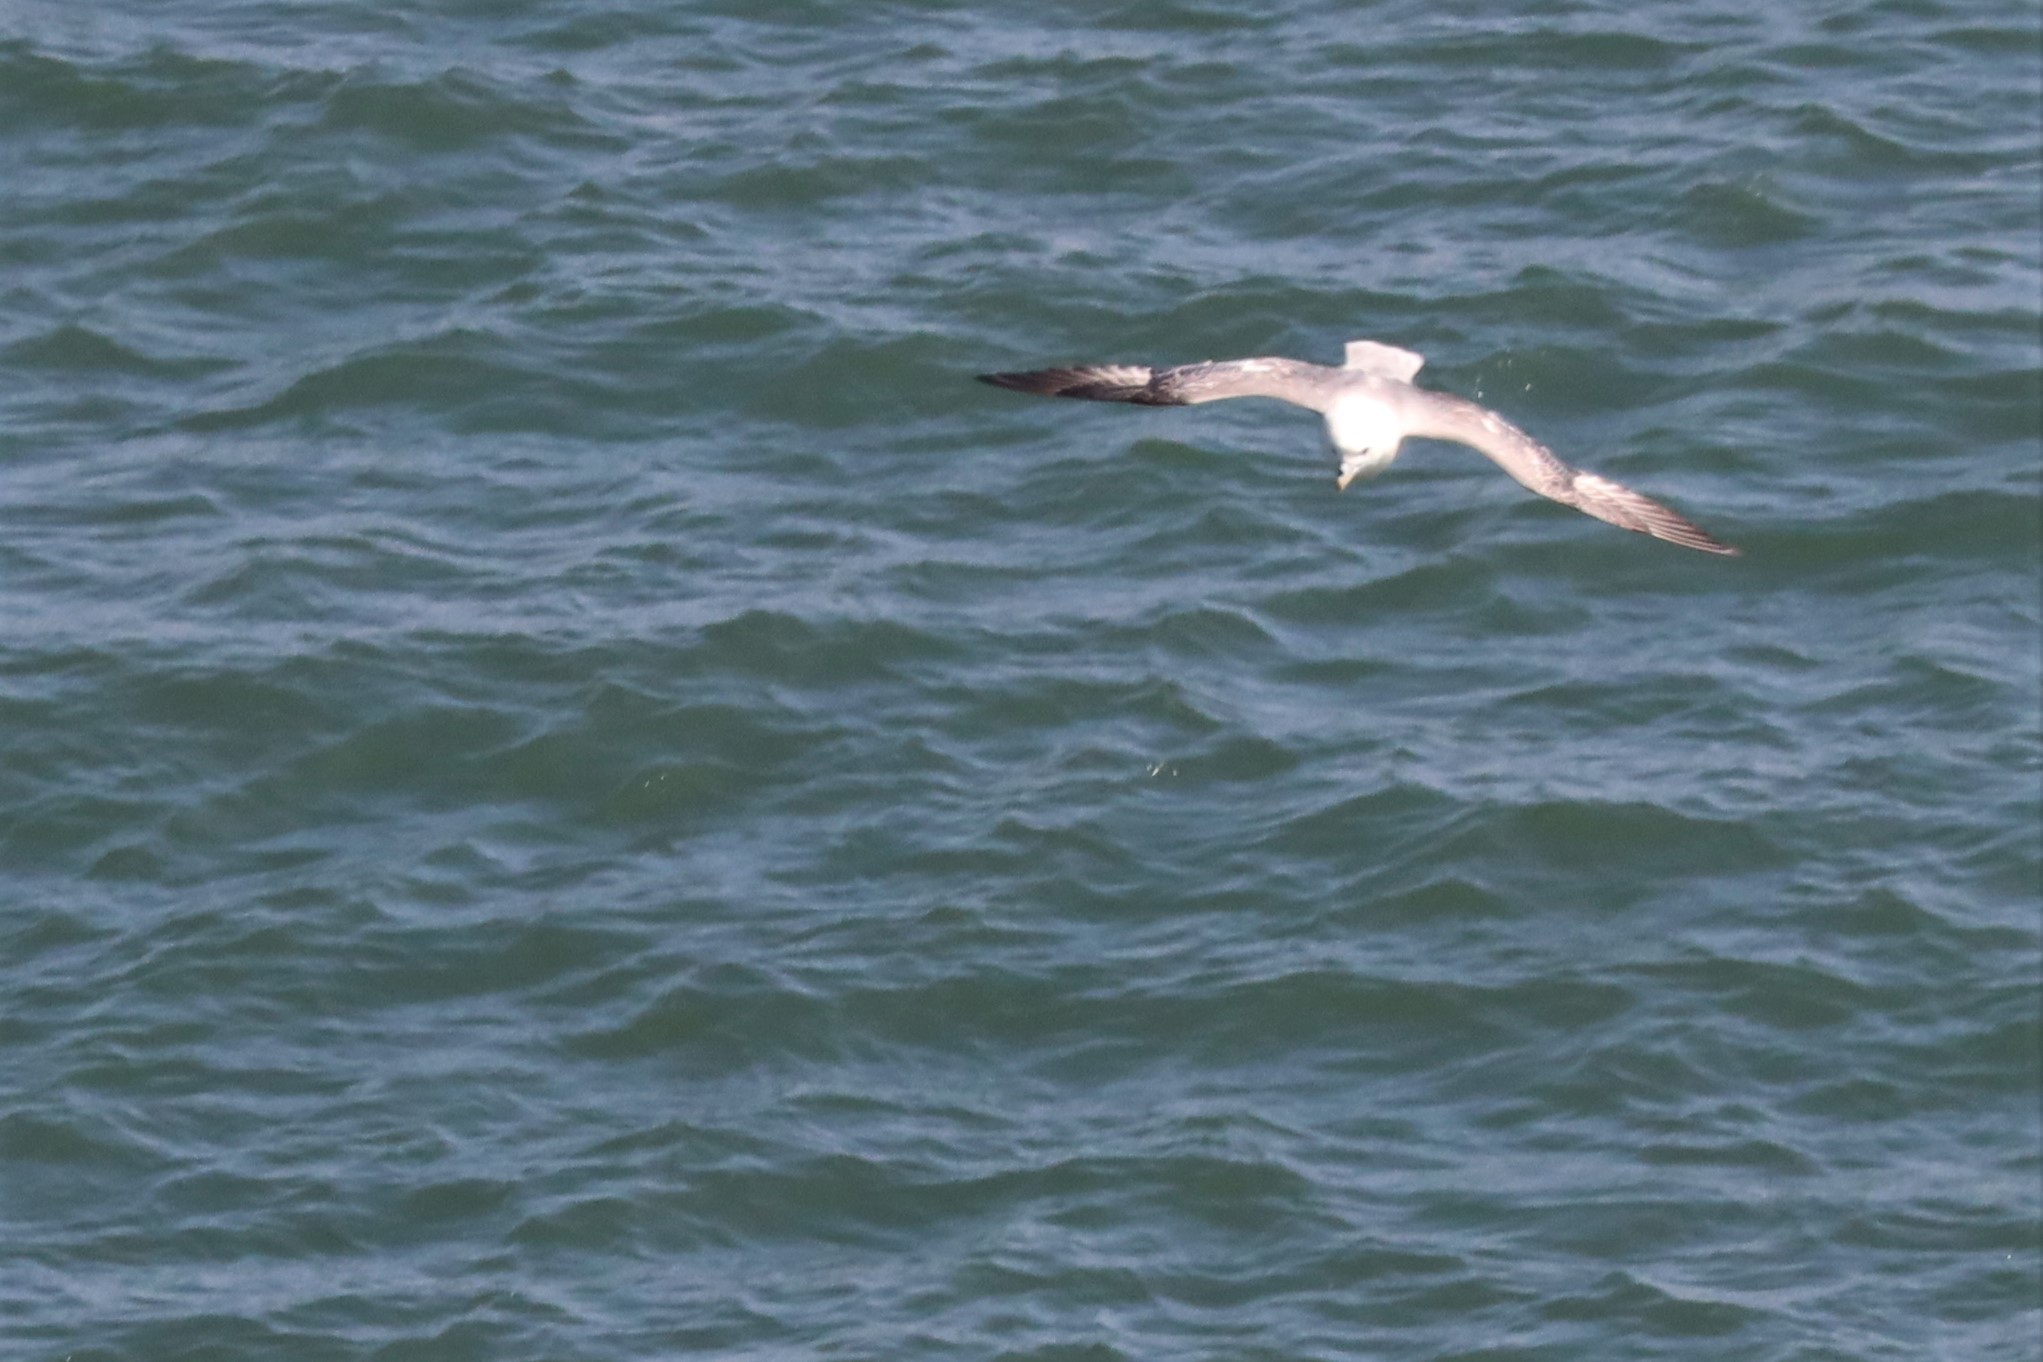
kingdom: Animalia
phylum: Chordata
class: Aves
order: Procellariiformes
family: Procellariidae
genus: Fulmarus
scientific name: Fulmarus glacialis
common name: Northern fulmar
